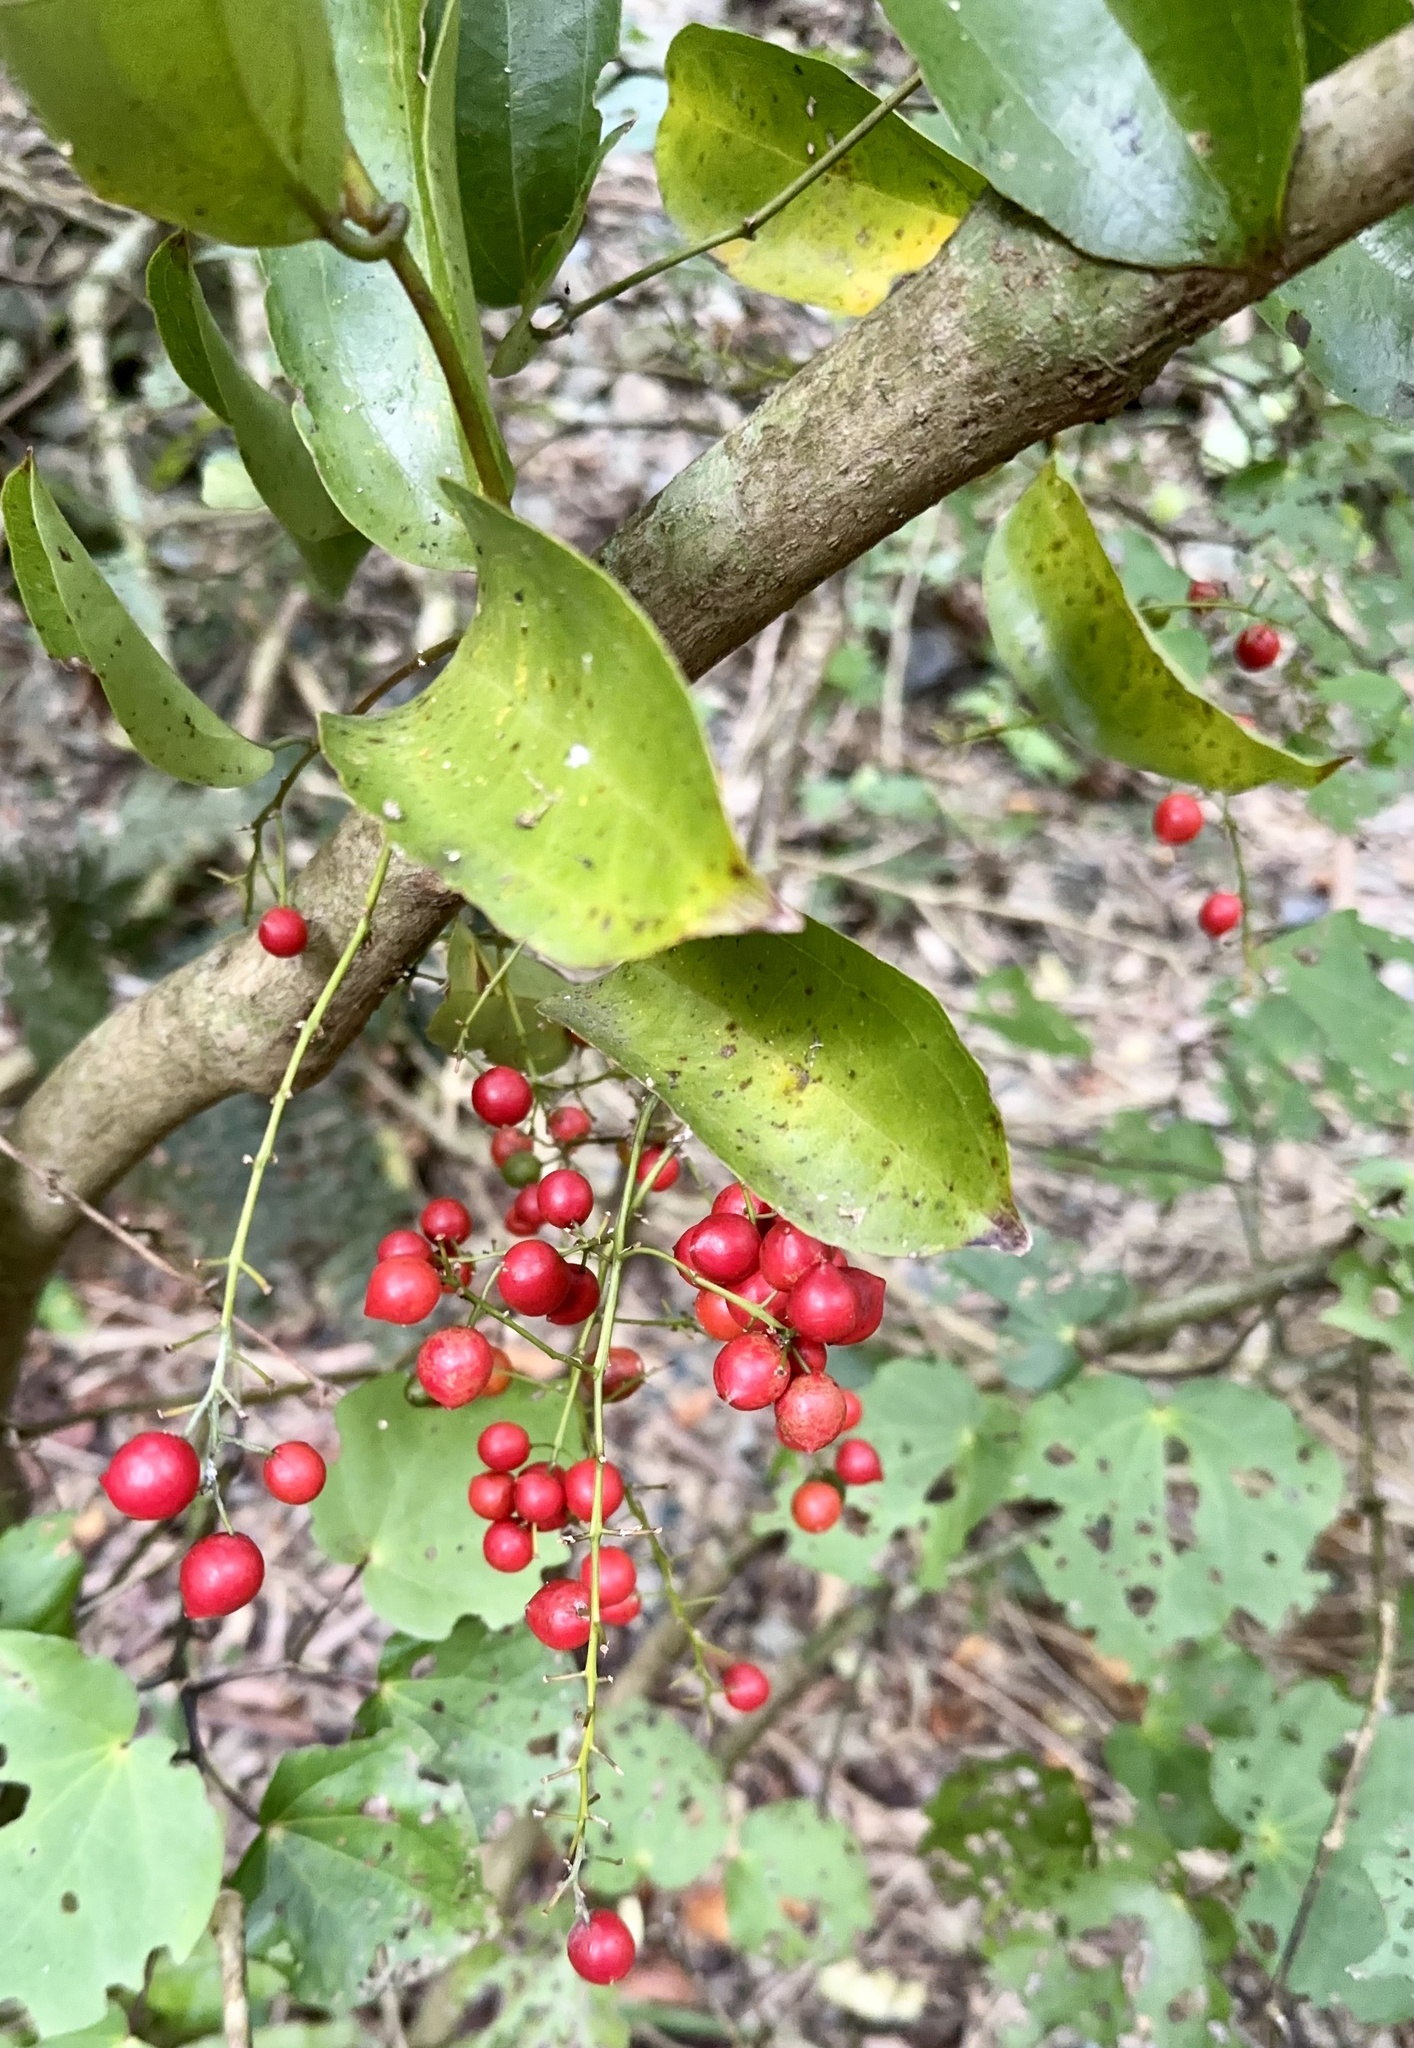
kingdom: Plantae
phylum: Tracheophyta
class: Liliopsida
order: Liliales
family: Ripogonaceae
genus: Ripogonum
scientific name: Ripogonum scandens
